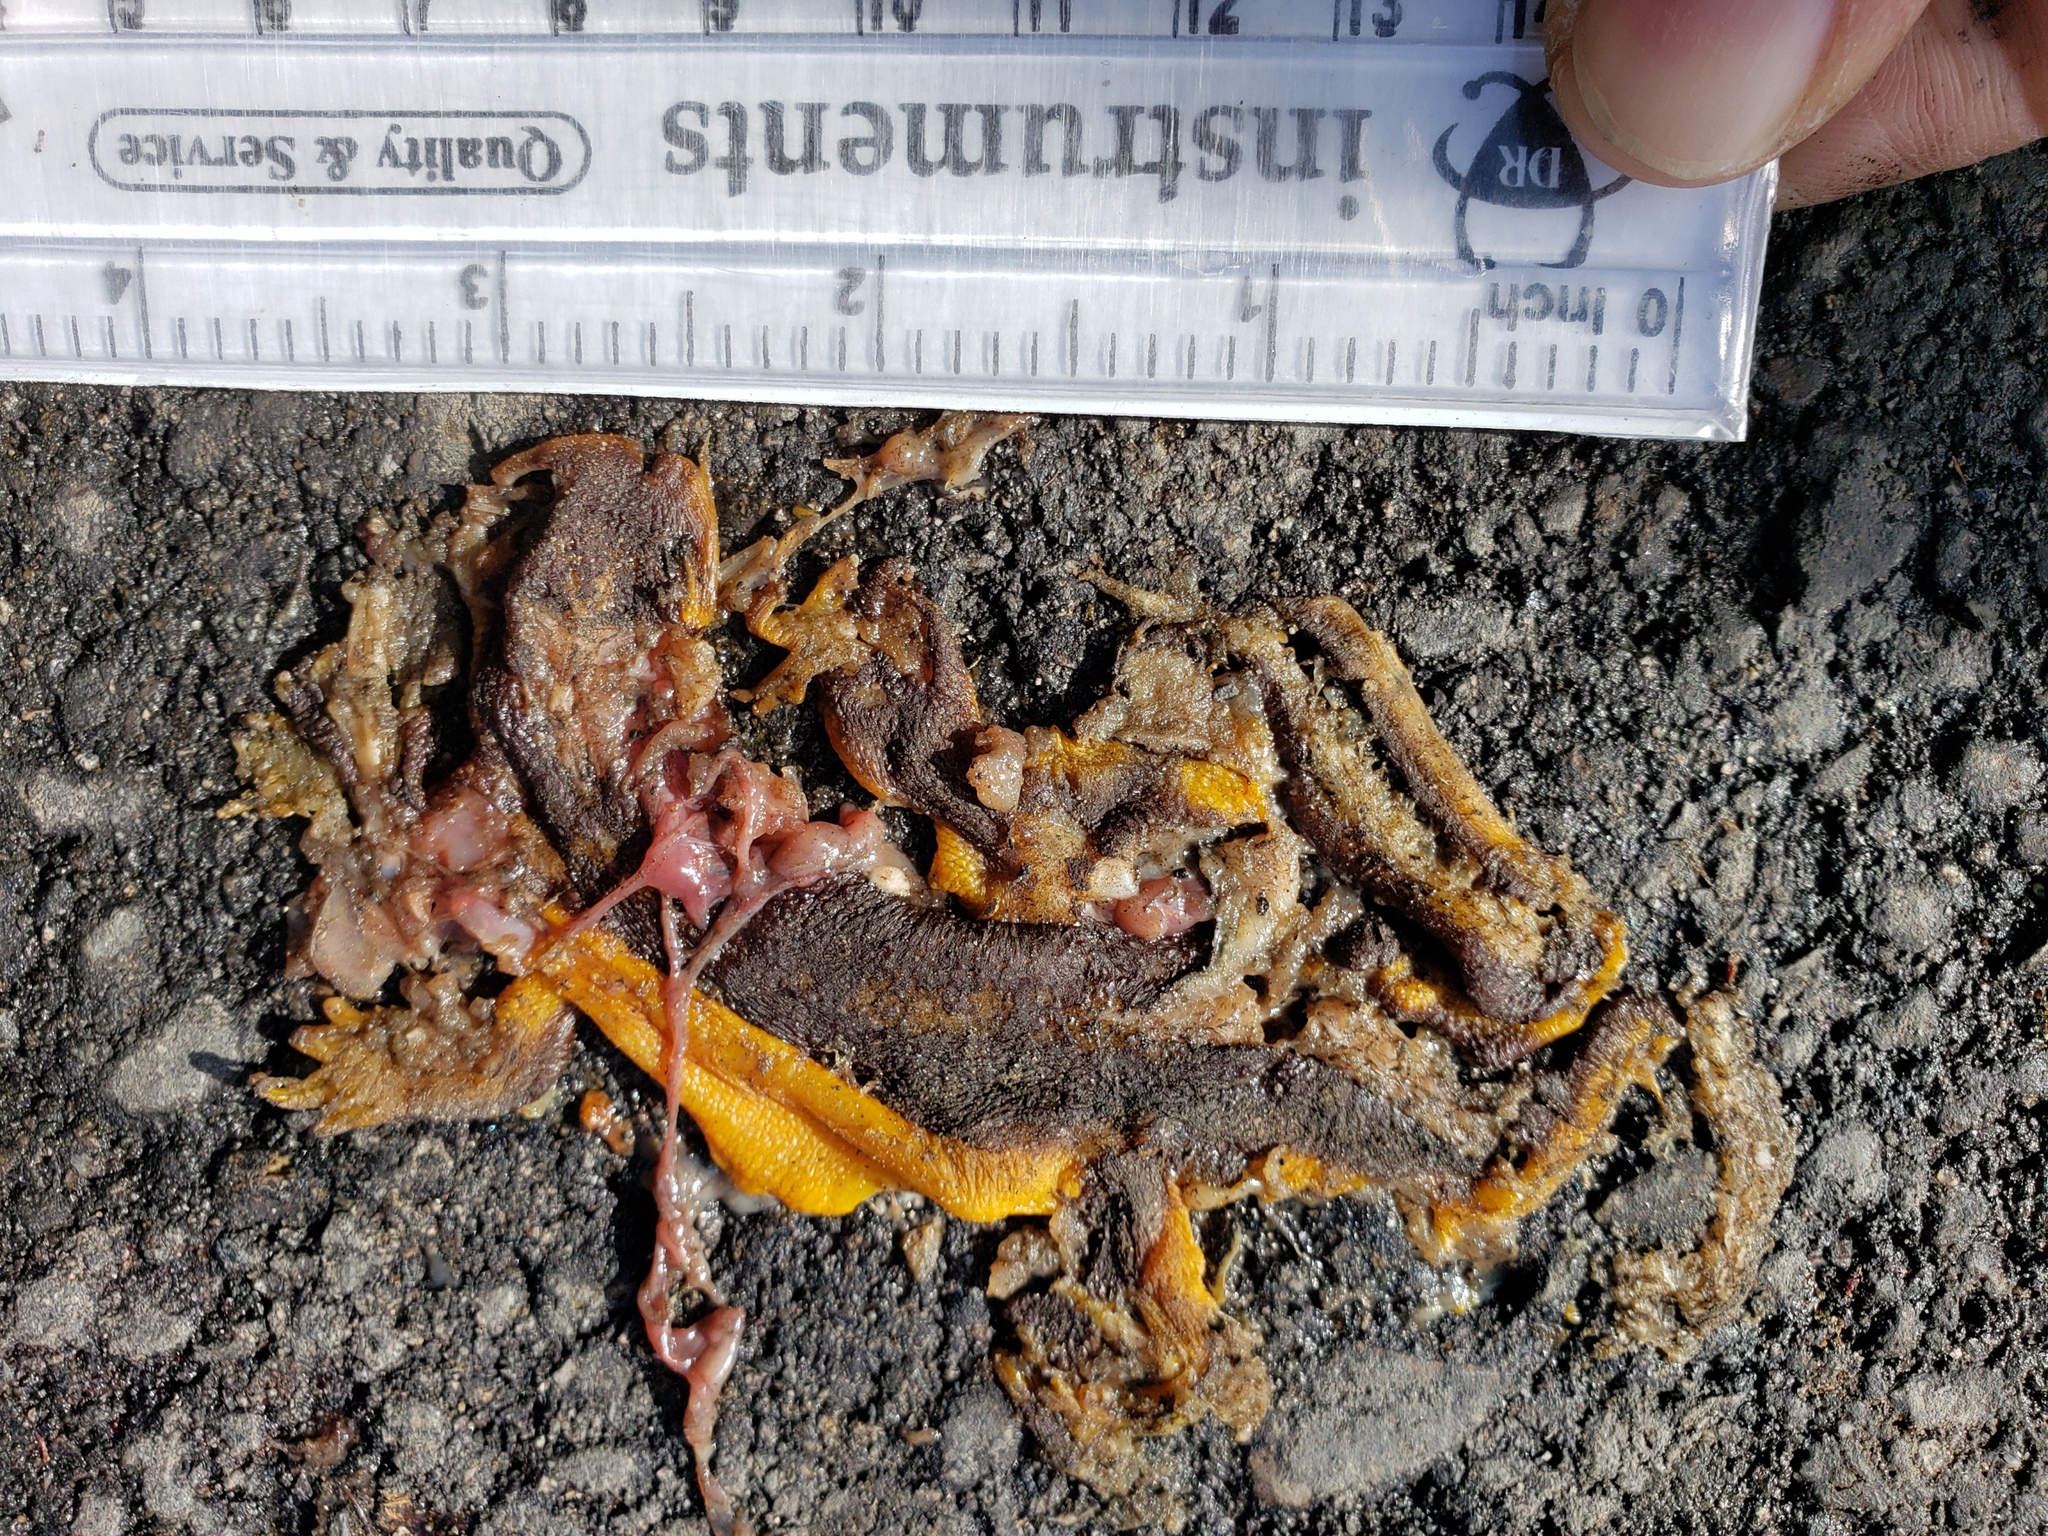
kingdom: Animalia
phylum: Chordata
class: Amphibia
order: Caudata
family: Salamandridae
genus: Taricha
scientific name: Taricha
